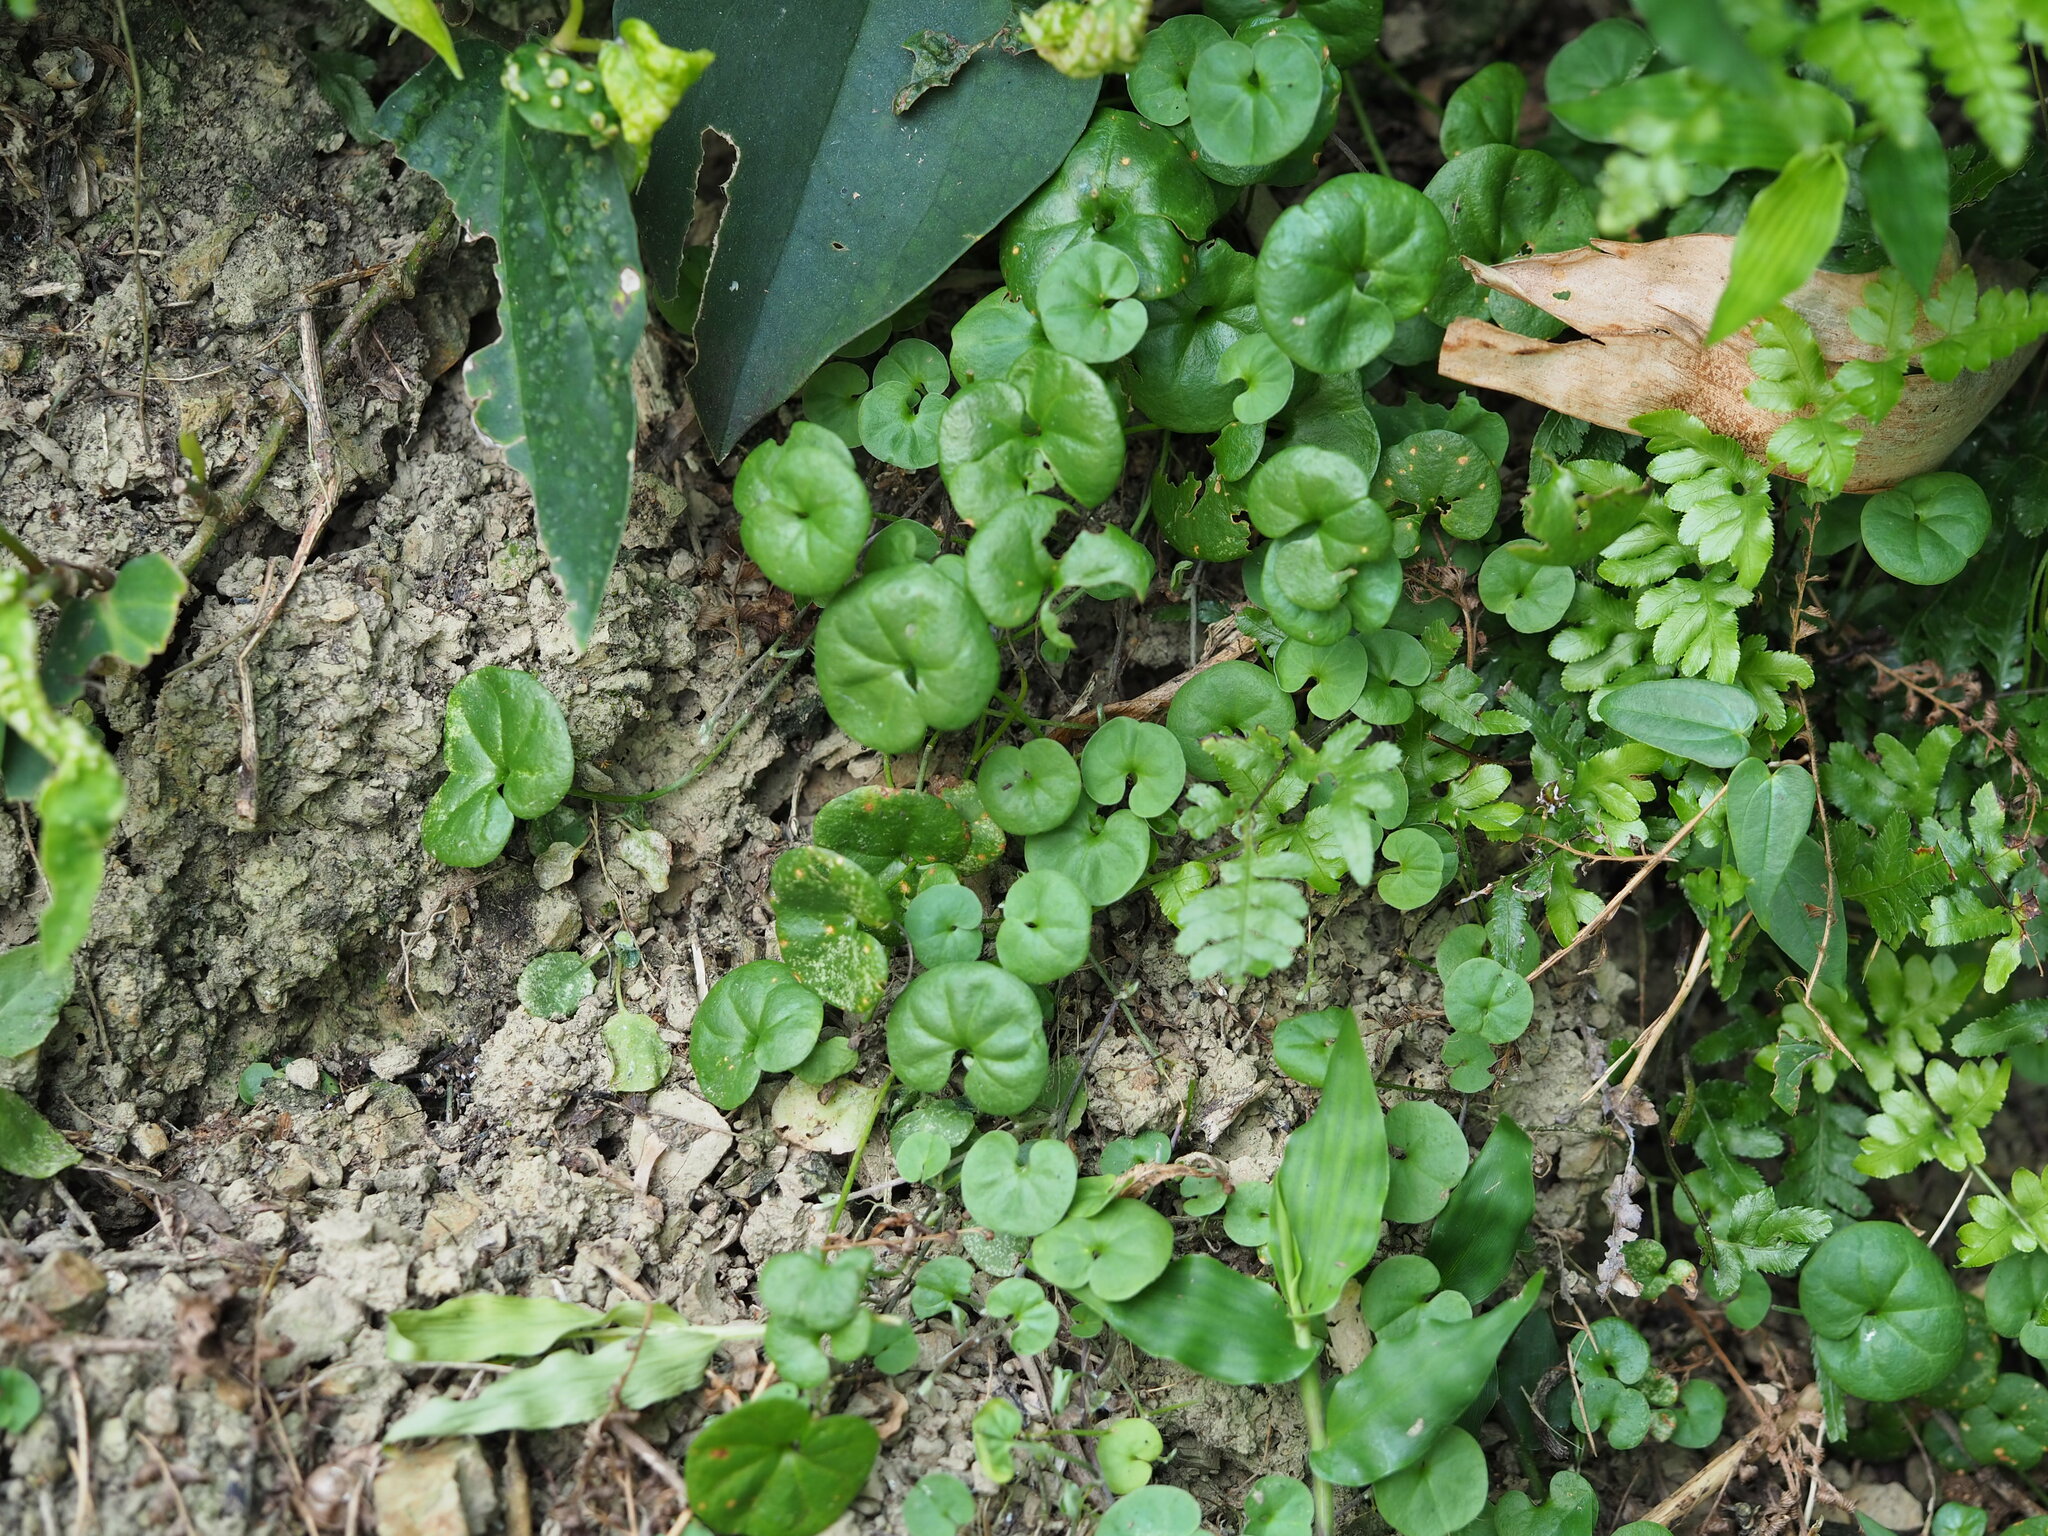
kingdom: Plantae
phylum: Tracheophyta
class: Magnoliopsida
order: Solanales
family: Convolvulaceae
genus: Dichondra
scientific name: Dichondra micrantha
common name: Kidneyweed
